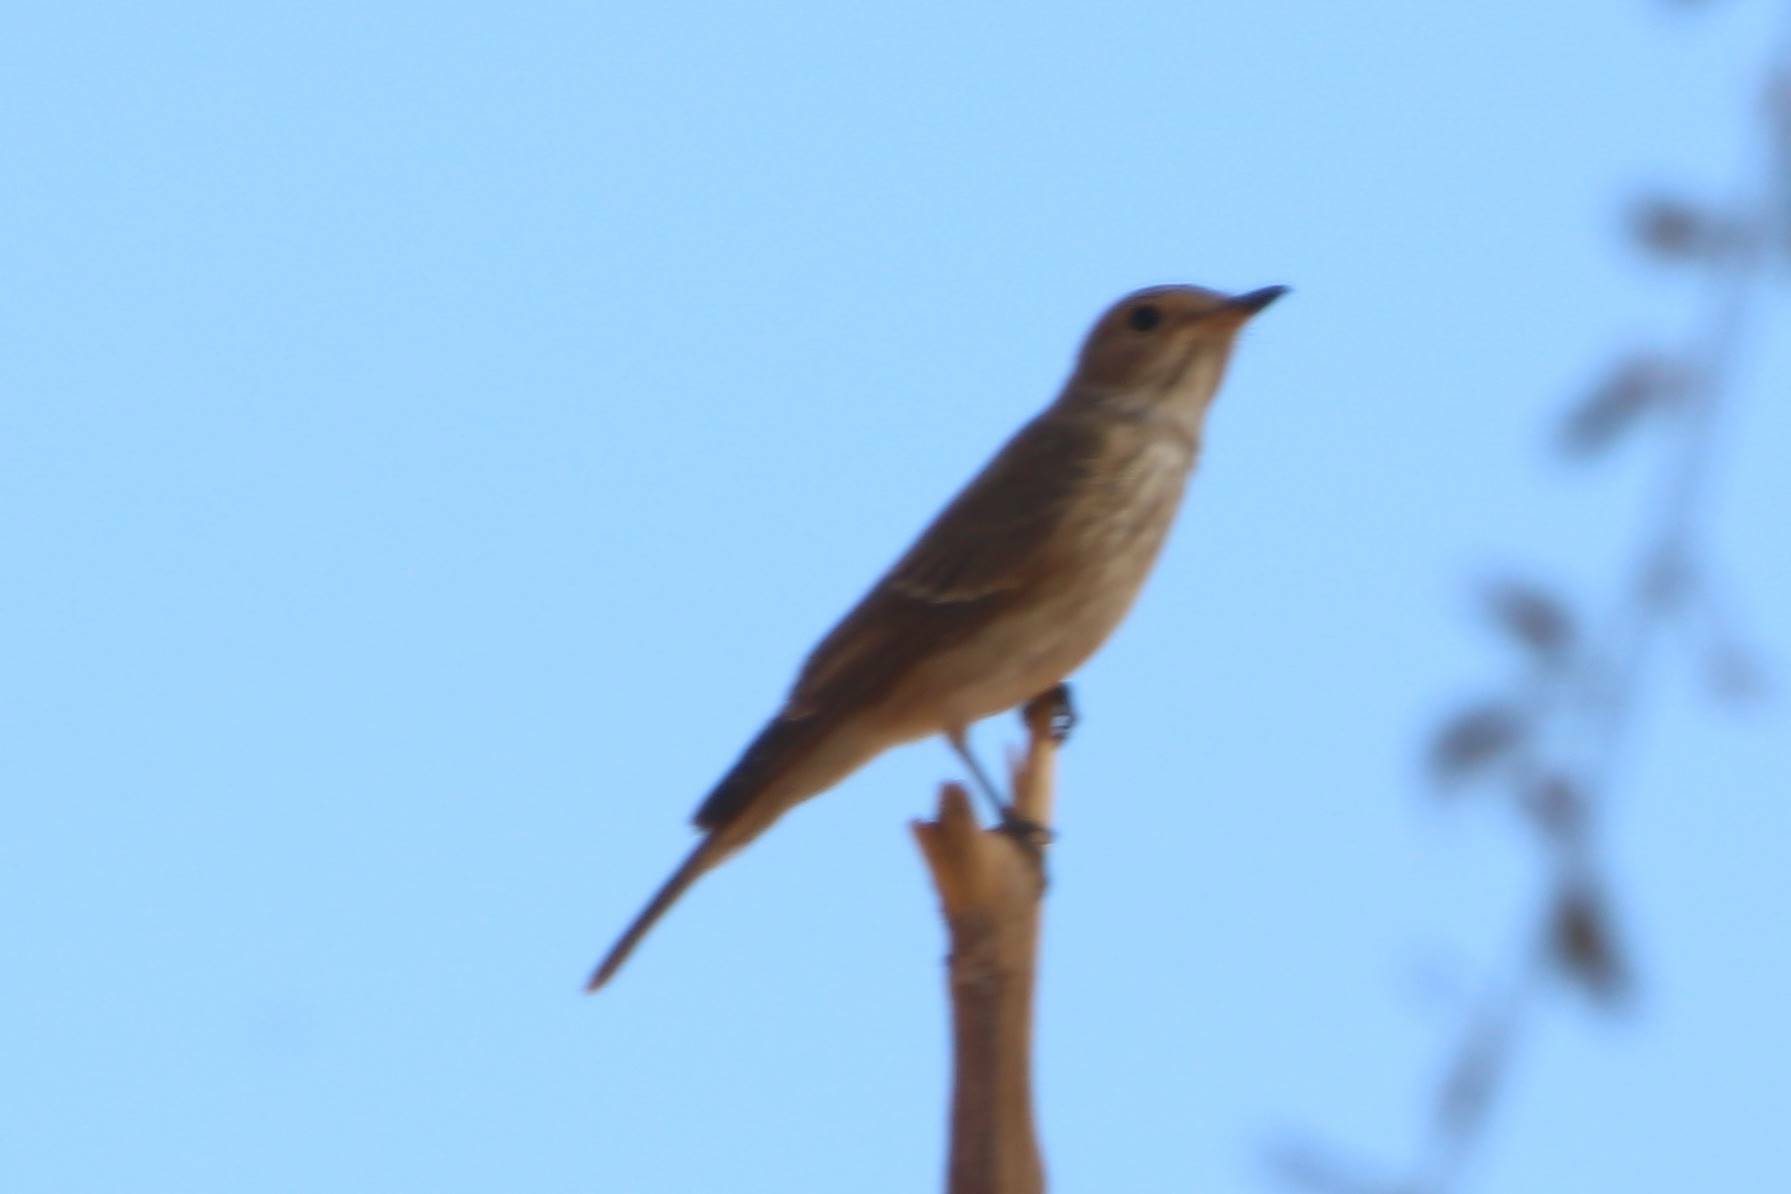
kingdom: Animalia
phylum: Chordata
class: Aves
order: Passeriformes
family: Muscicapidae
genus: Muscicapa
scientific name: Muscicapa striata
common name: Spotted flycatcher
